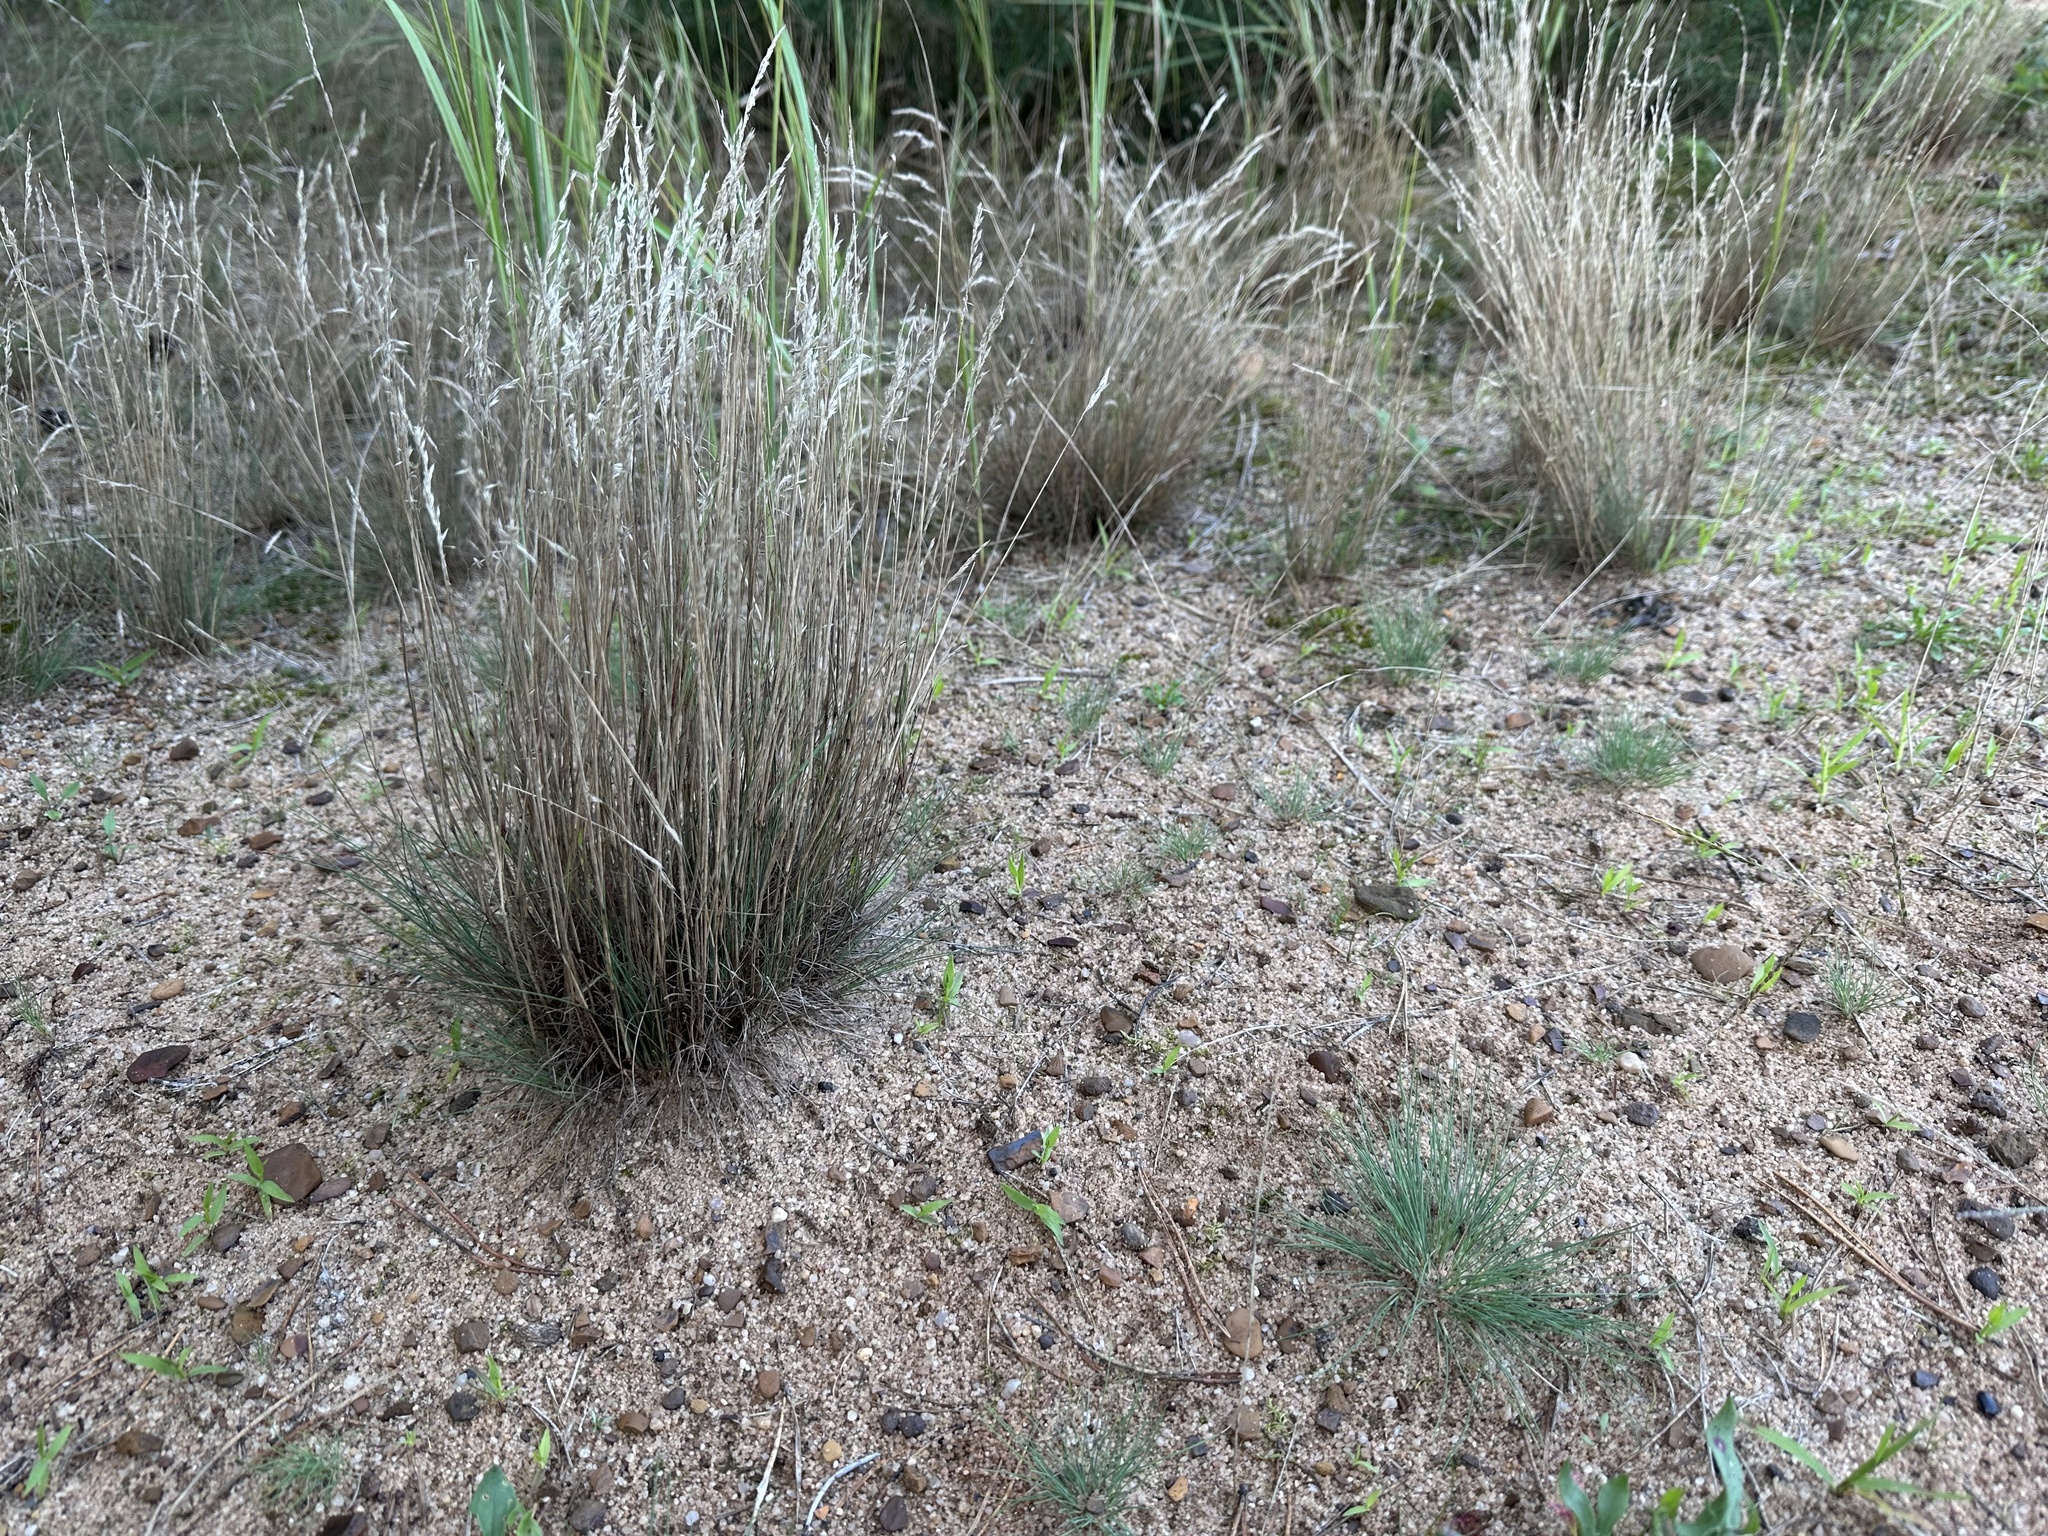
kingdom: Plantae
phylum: Tracheophyta
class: Liliopsida
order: Poales
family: Poaceae
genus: Corynephorus
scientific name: Corynephorus canescens
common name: Grey hair-grass
